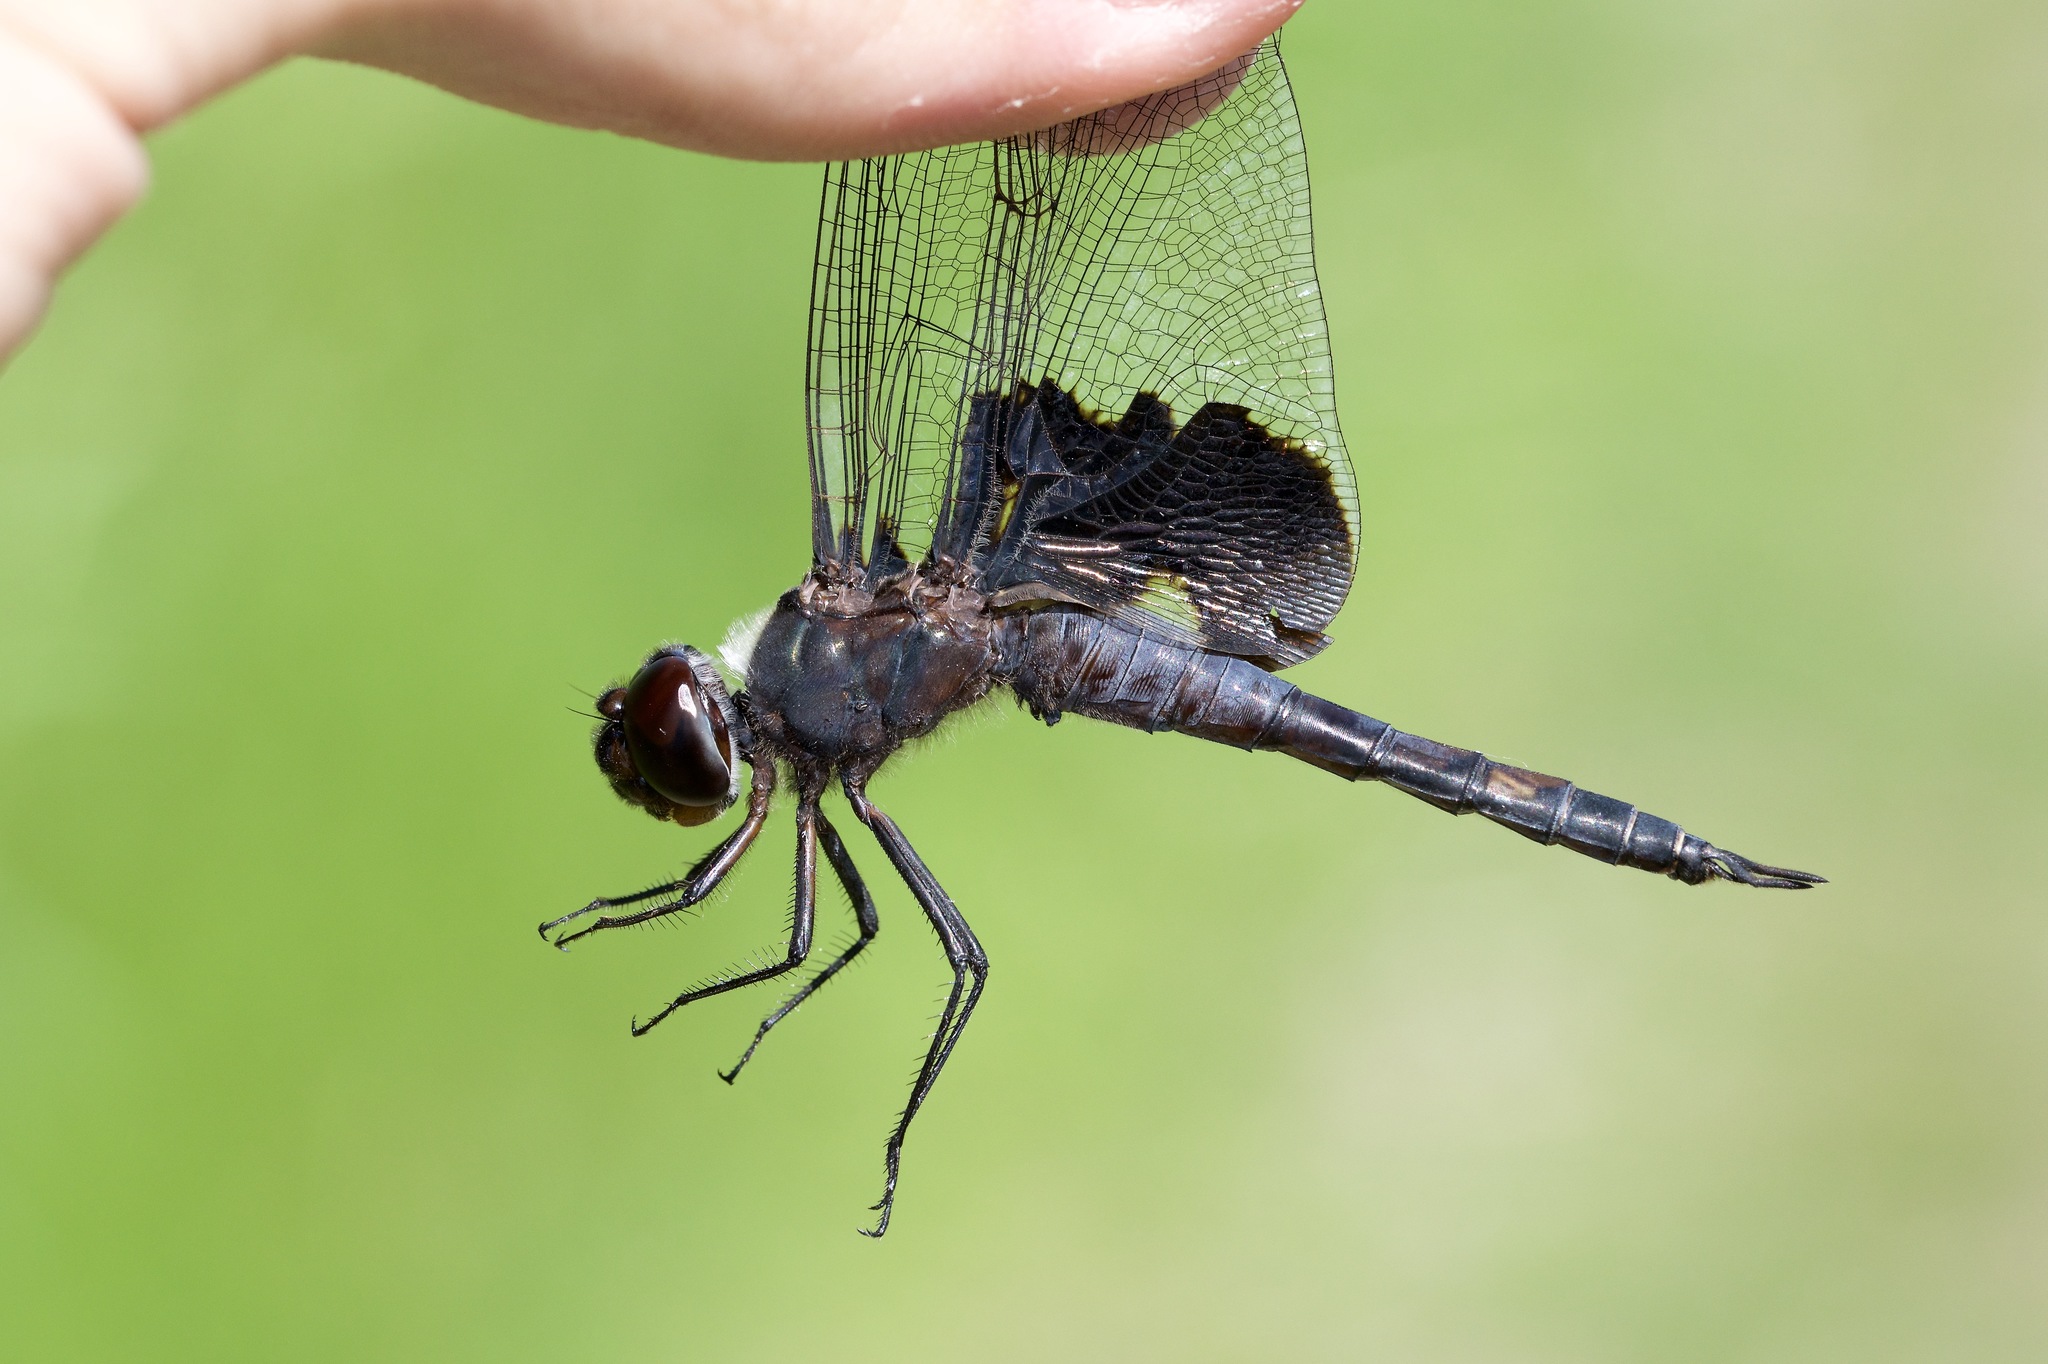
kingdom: Animalia
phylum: Arthropoda
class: Insecta
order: Odonata
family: Libellulidae
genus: Tramea
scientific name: Tramea lacerata
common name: Black saddlebags
